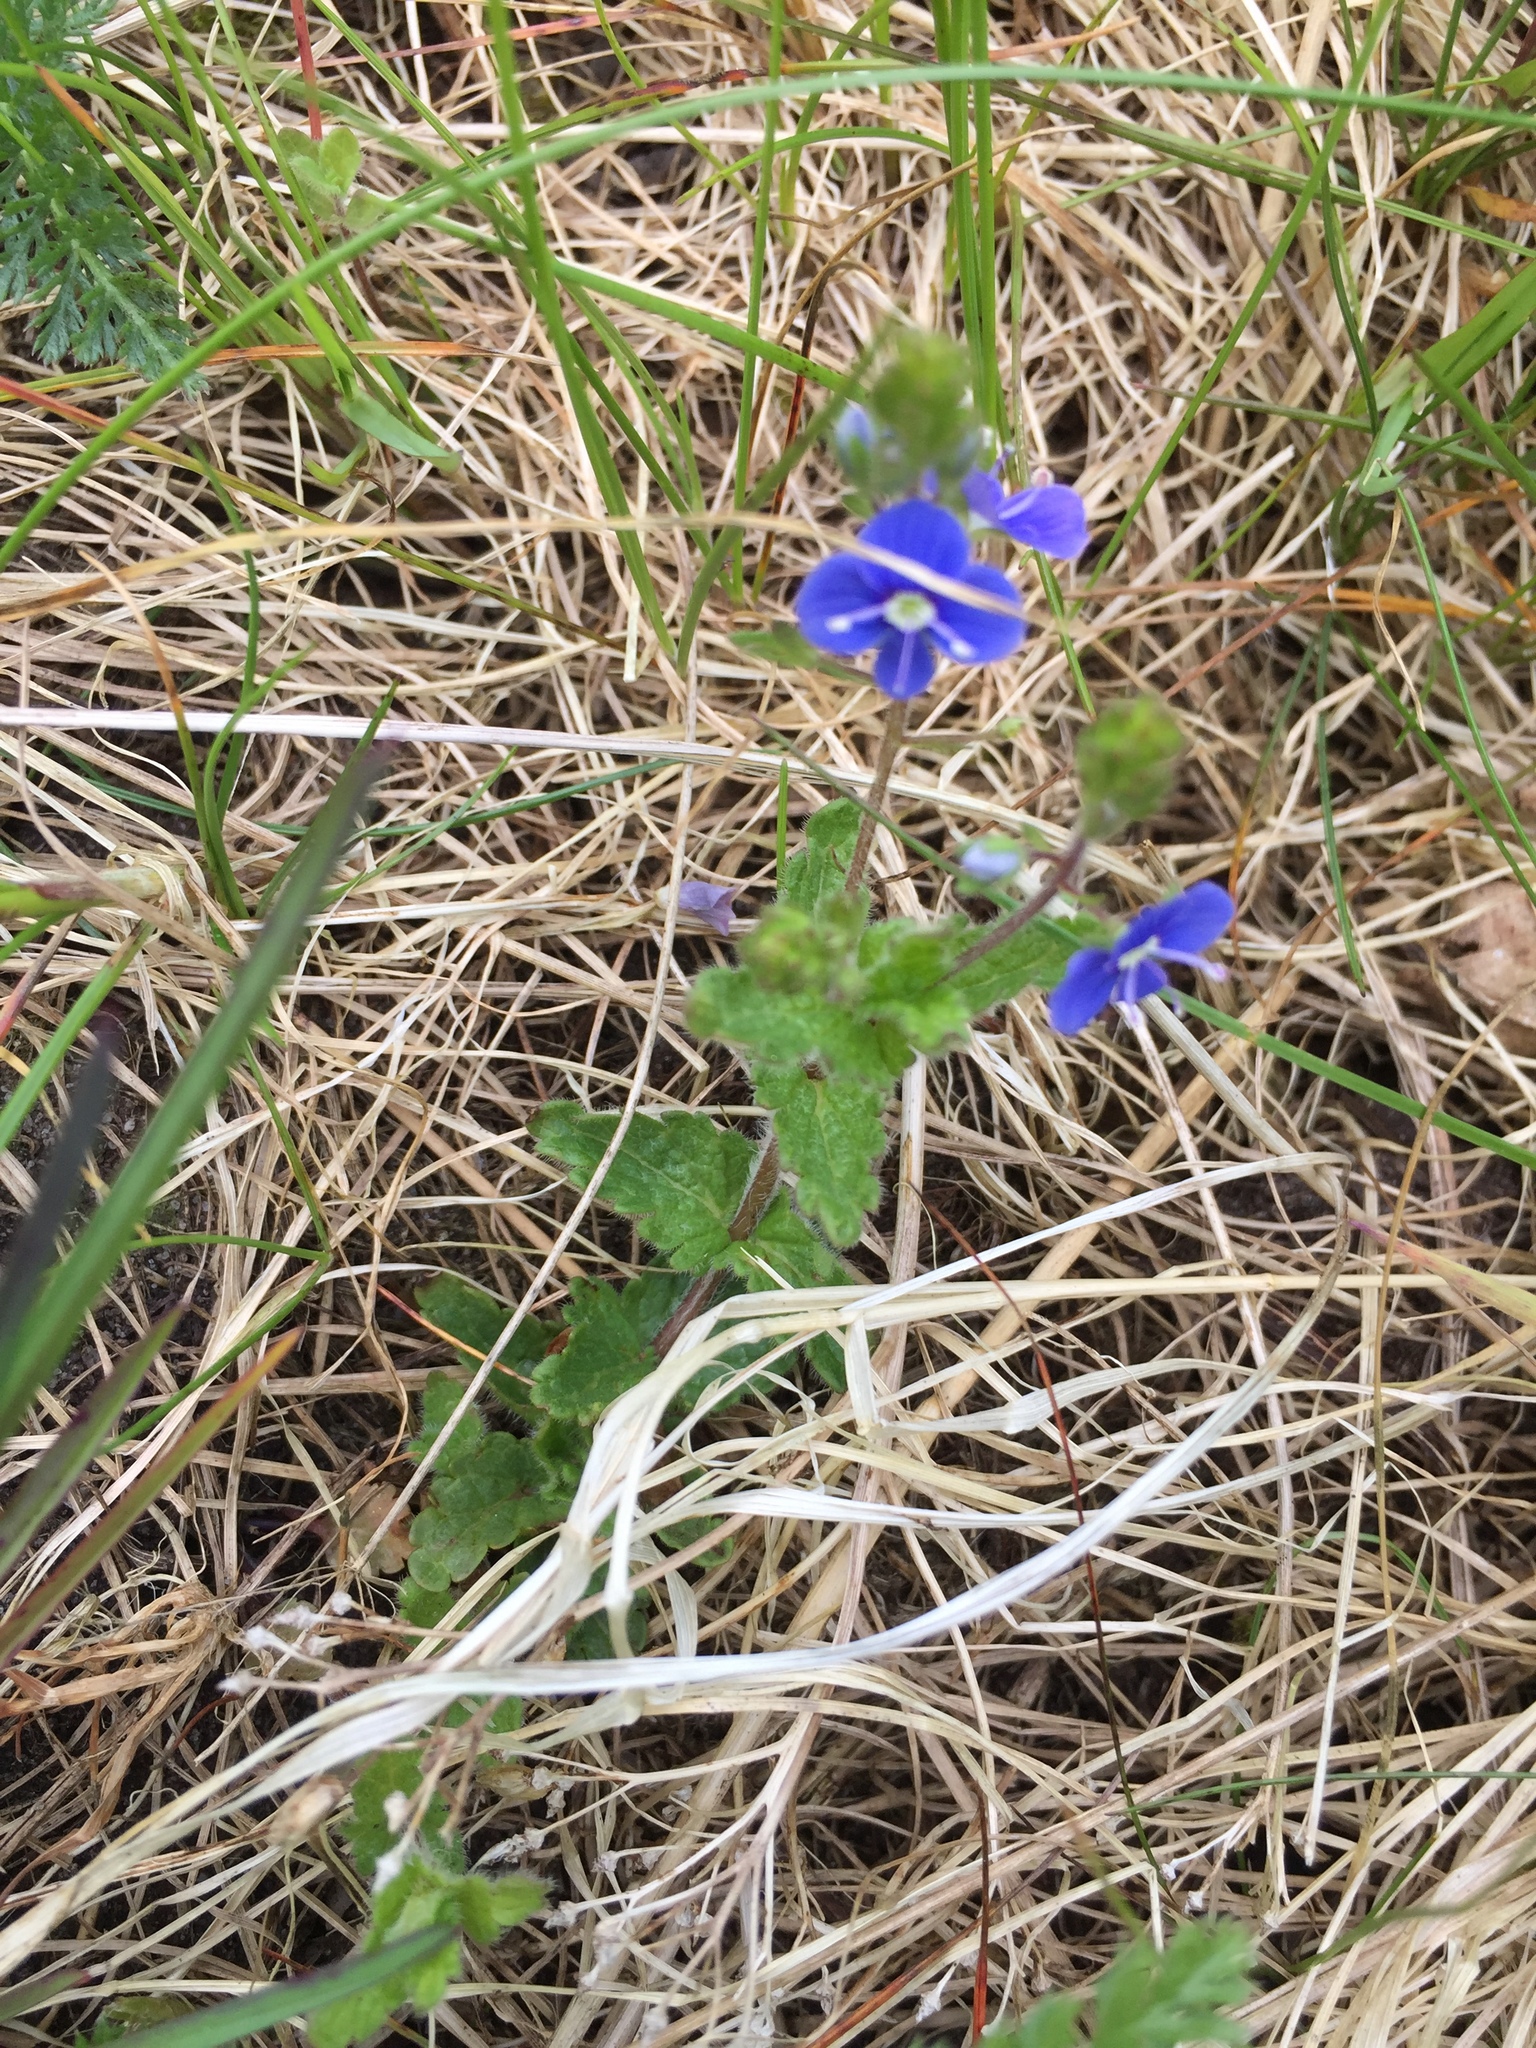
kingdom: Plantae
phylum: Tracheophyta
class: Magnoliopsida
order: Lamiales
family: Plantaginaceae
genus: Veronica
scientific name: Veronica chamaedrys
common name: Germander speedwell
